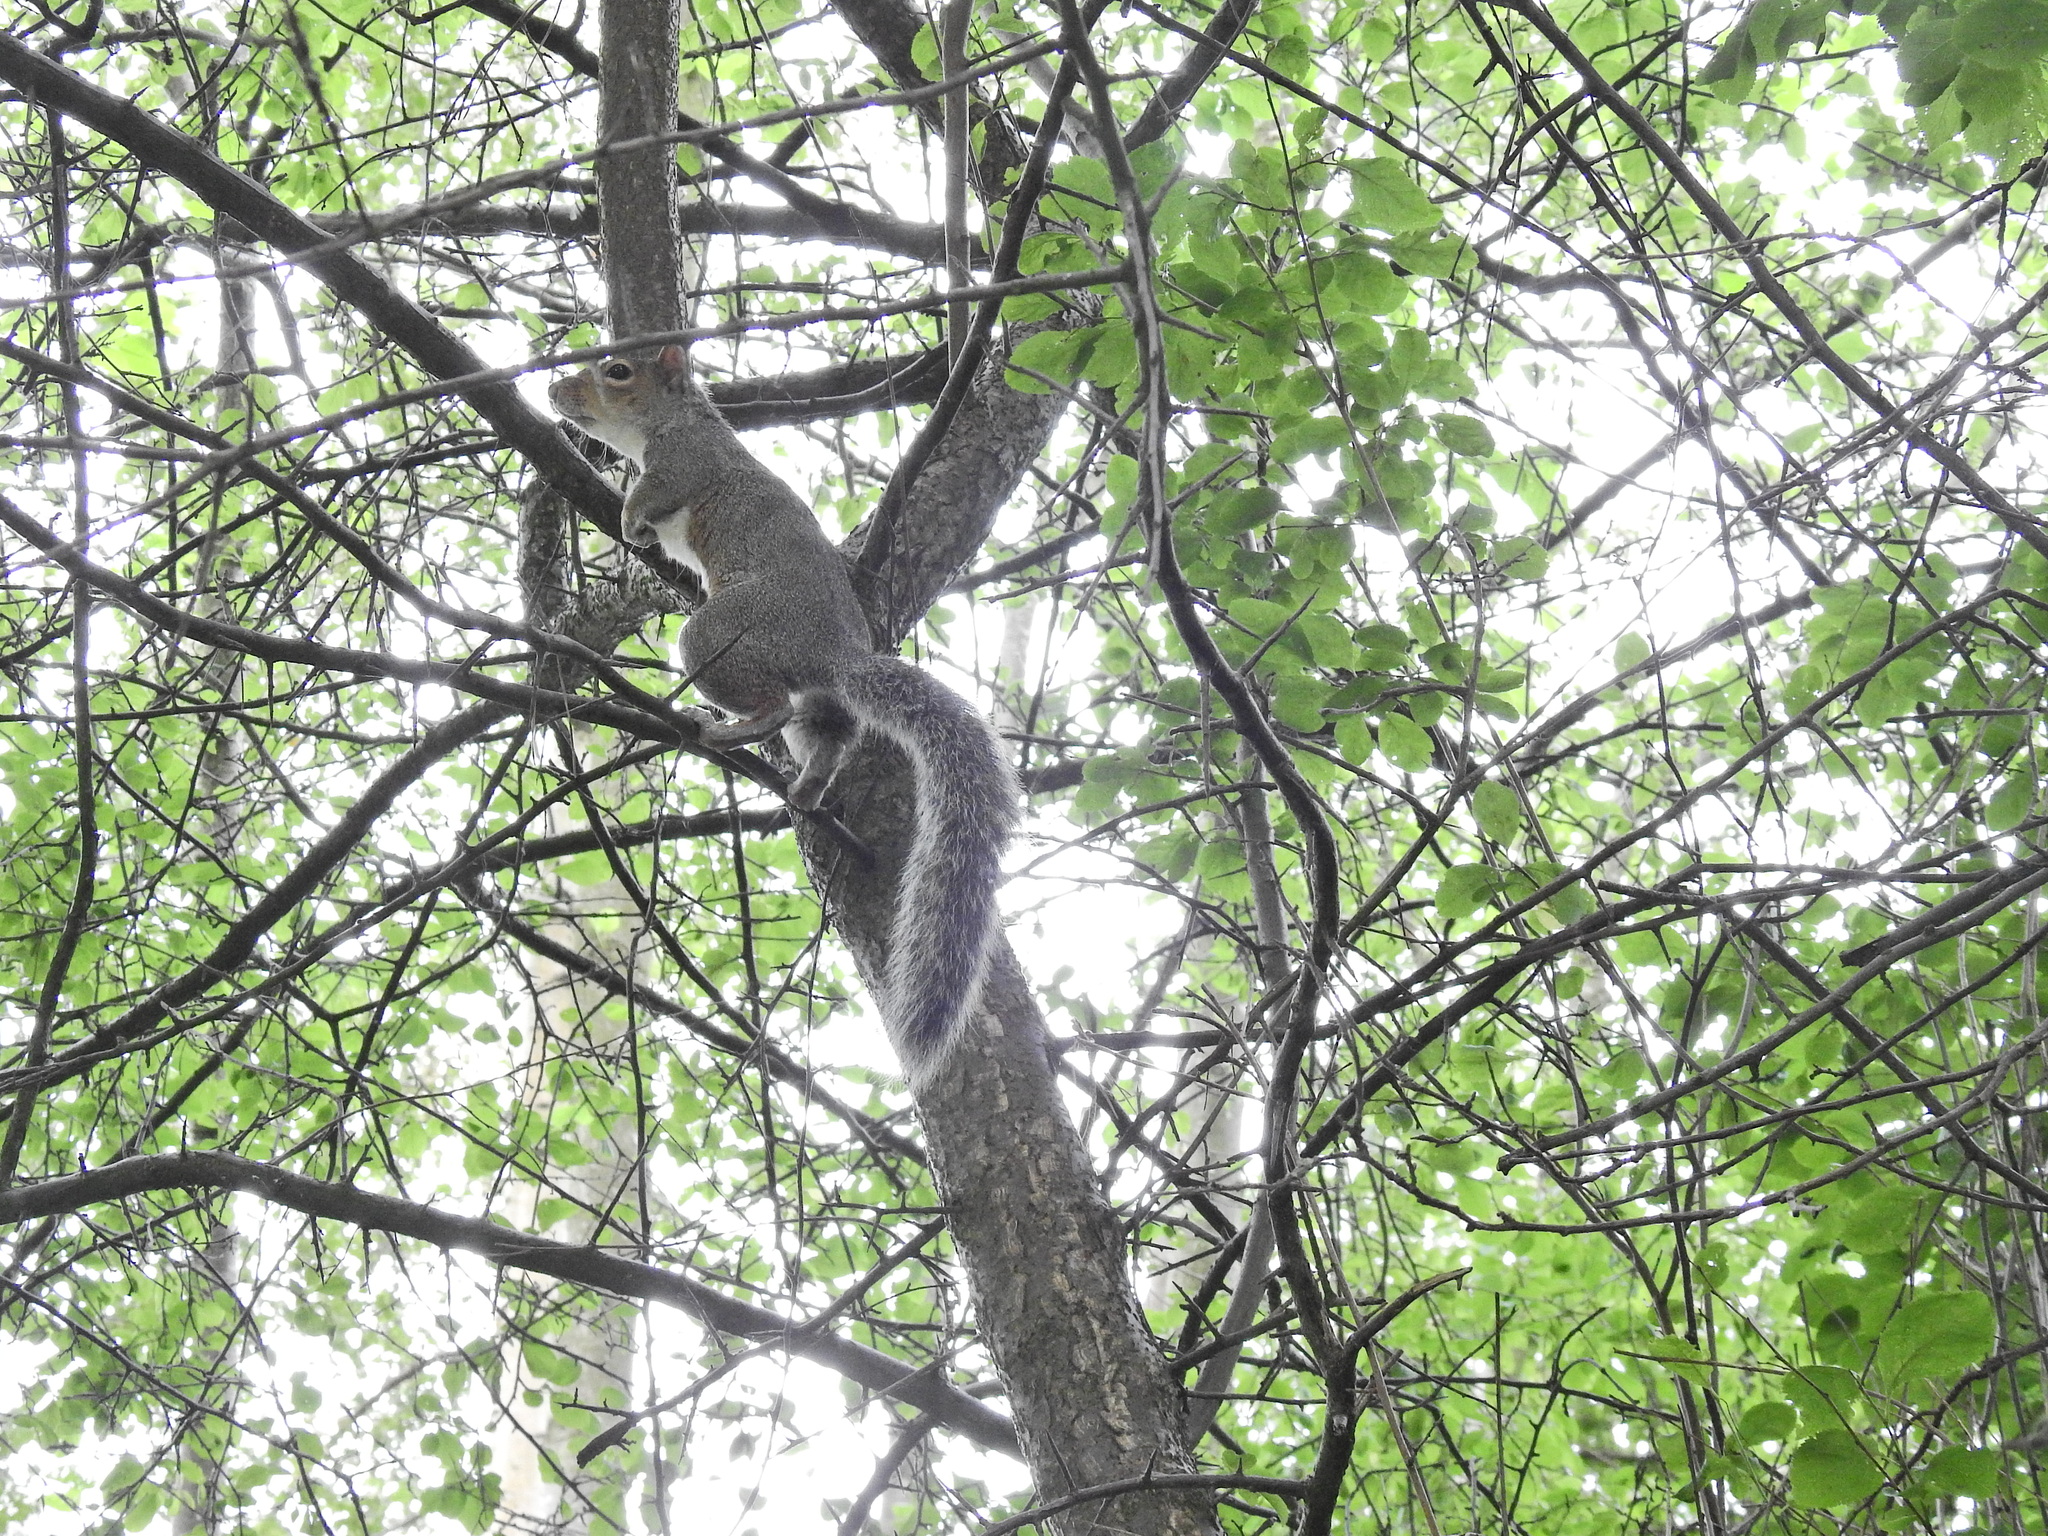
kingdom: Animalia
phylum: Chordata
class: Mammalia
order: Rodentia
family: Sciuridae
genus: Sciurus
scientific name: Sciurus carolinensis
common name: Eastern gray squirrel
